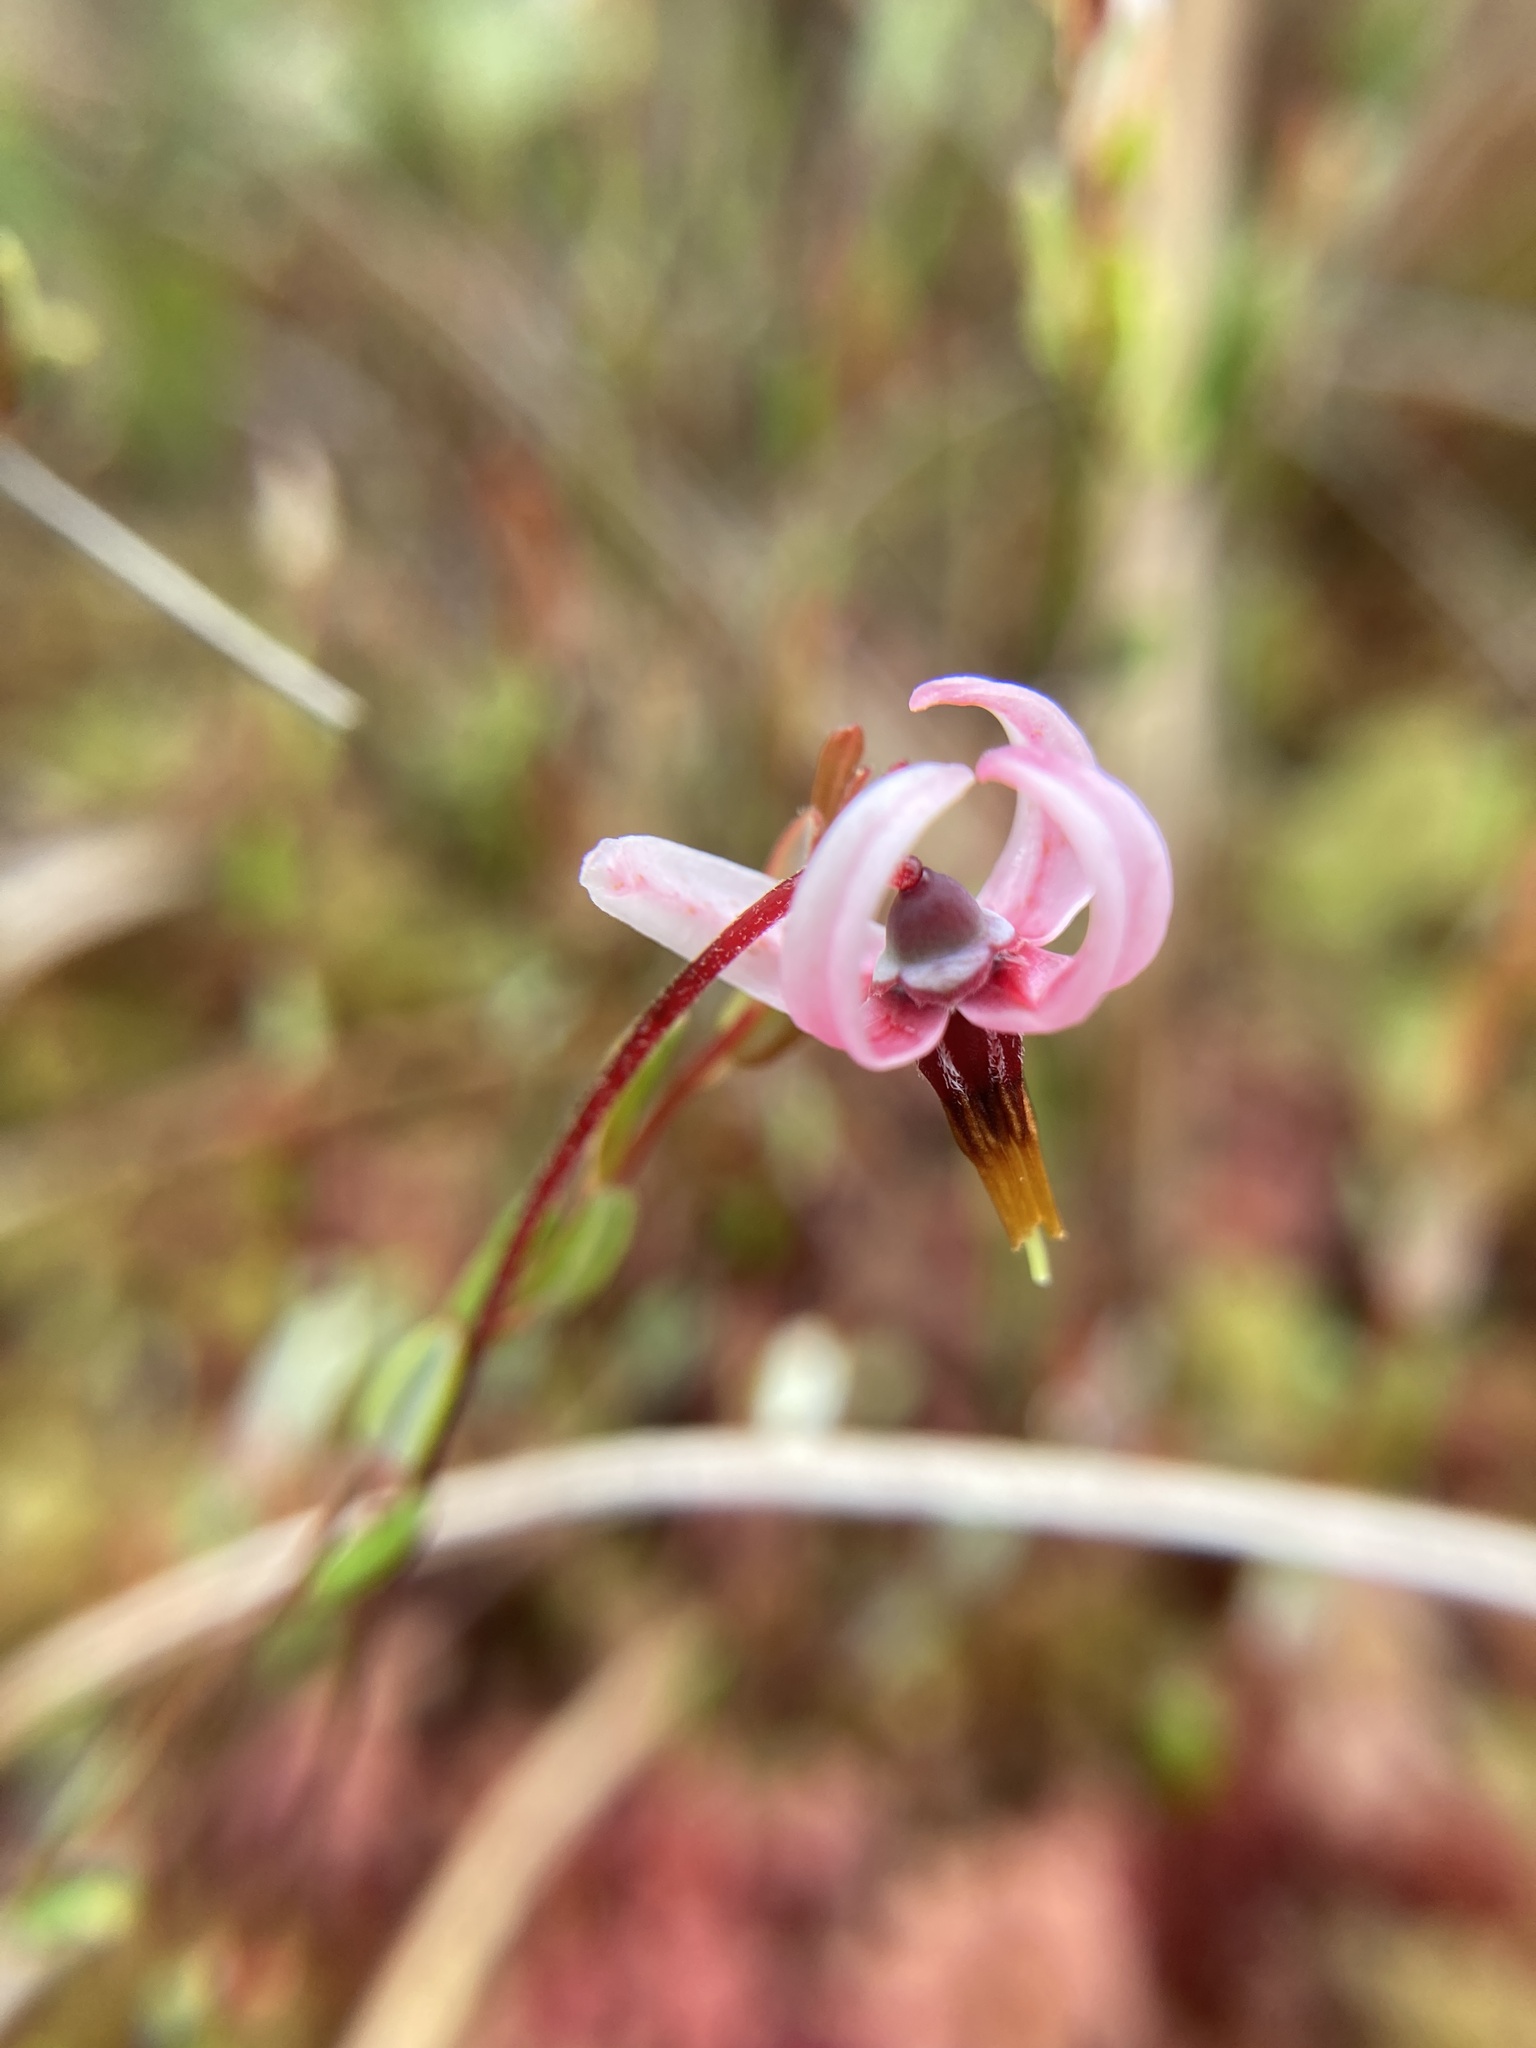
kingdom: Plantae
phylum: Tracheophyta
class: Magnoliopsida
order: Ericales
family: Ericaceae
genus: Vaccinium
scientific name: Vaccinium oxycoccos
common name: Cranberry
